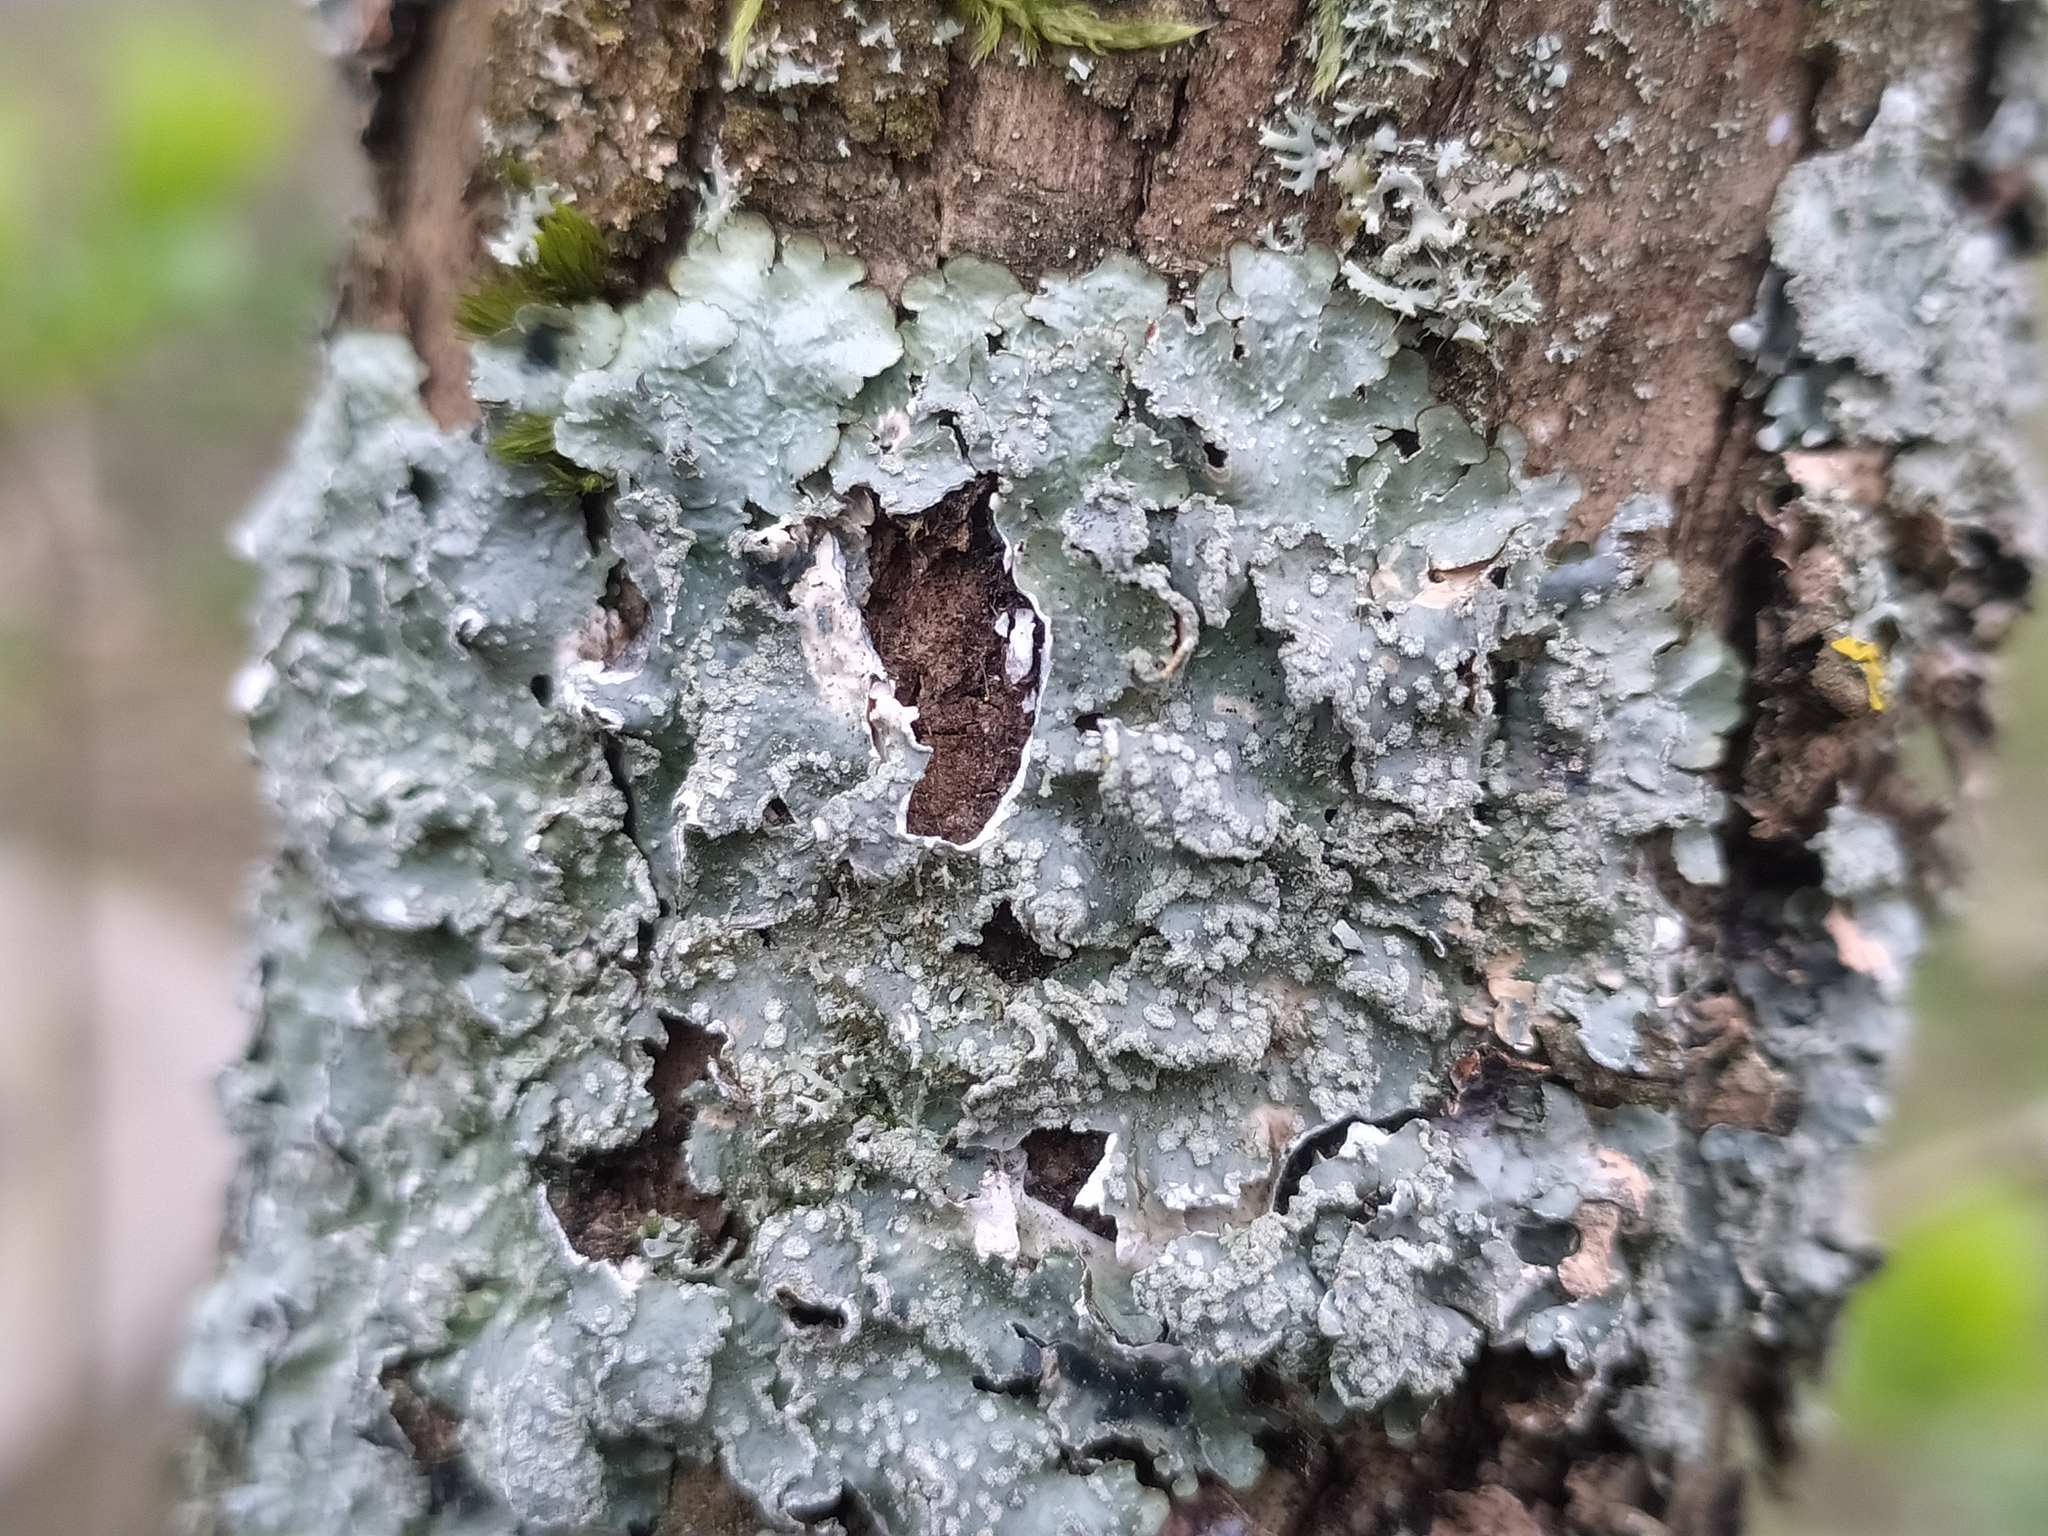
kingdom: Fungi
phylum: Ascomycota
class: Lecanoromycetes
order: Lecanorales
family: Parmeliaceae
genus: Punctelia
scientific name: Punctelia jeckeri
